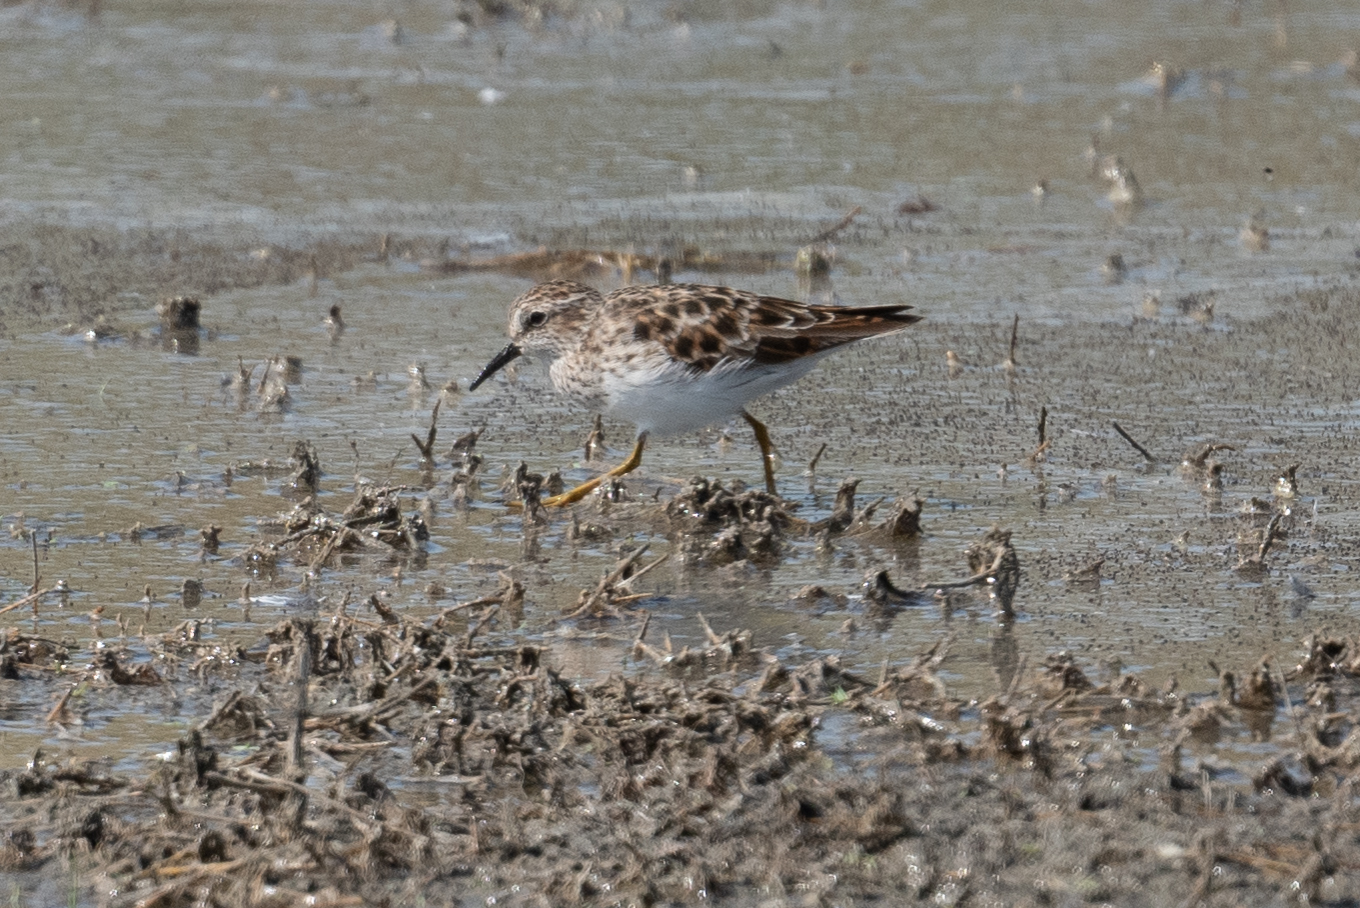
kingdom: Animalia
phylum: Chordata
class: Aves
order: Charadriiformes
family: Scolopacidae
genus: Calidris
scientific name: Calidris minutilla
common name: Least sandpiper
